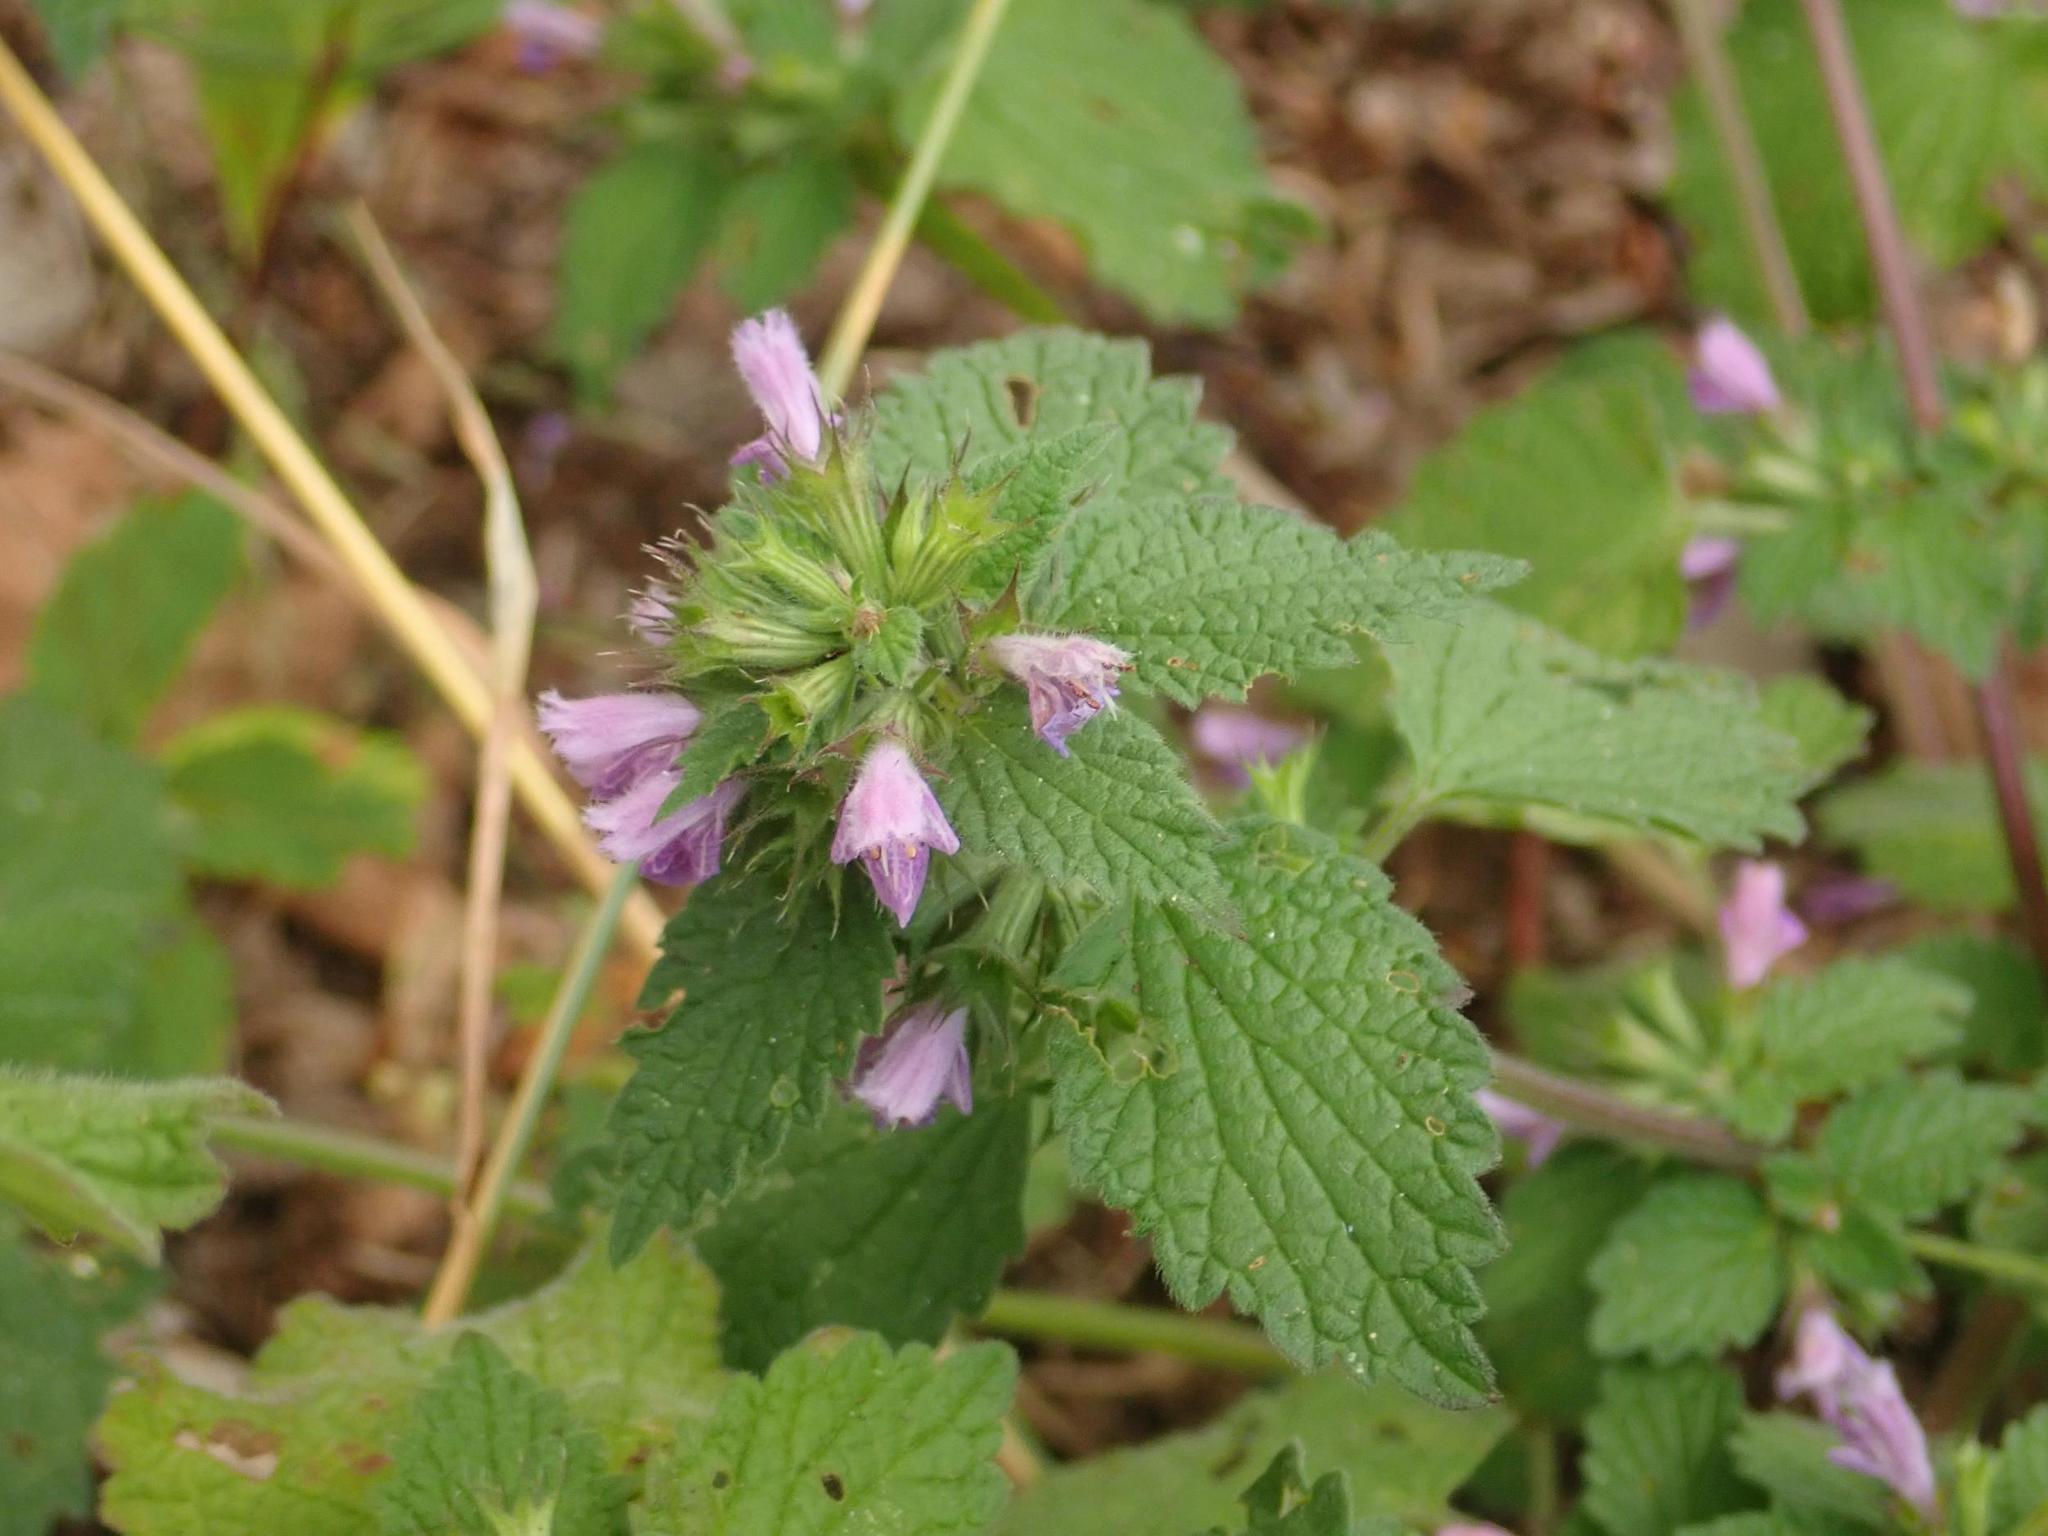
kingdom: Plantae
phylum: Tracheophyta
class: Magnoliopsida
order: Lamiales
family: Lamiaceae
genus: Ballota
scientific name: Ballota nigra
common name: Black horehound
